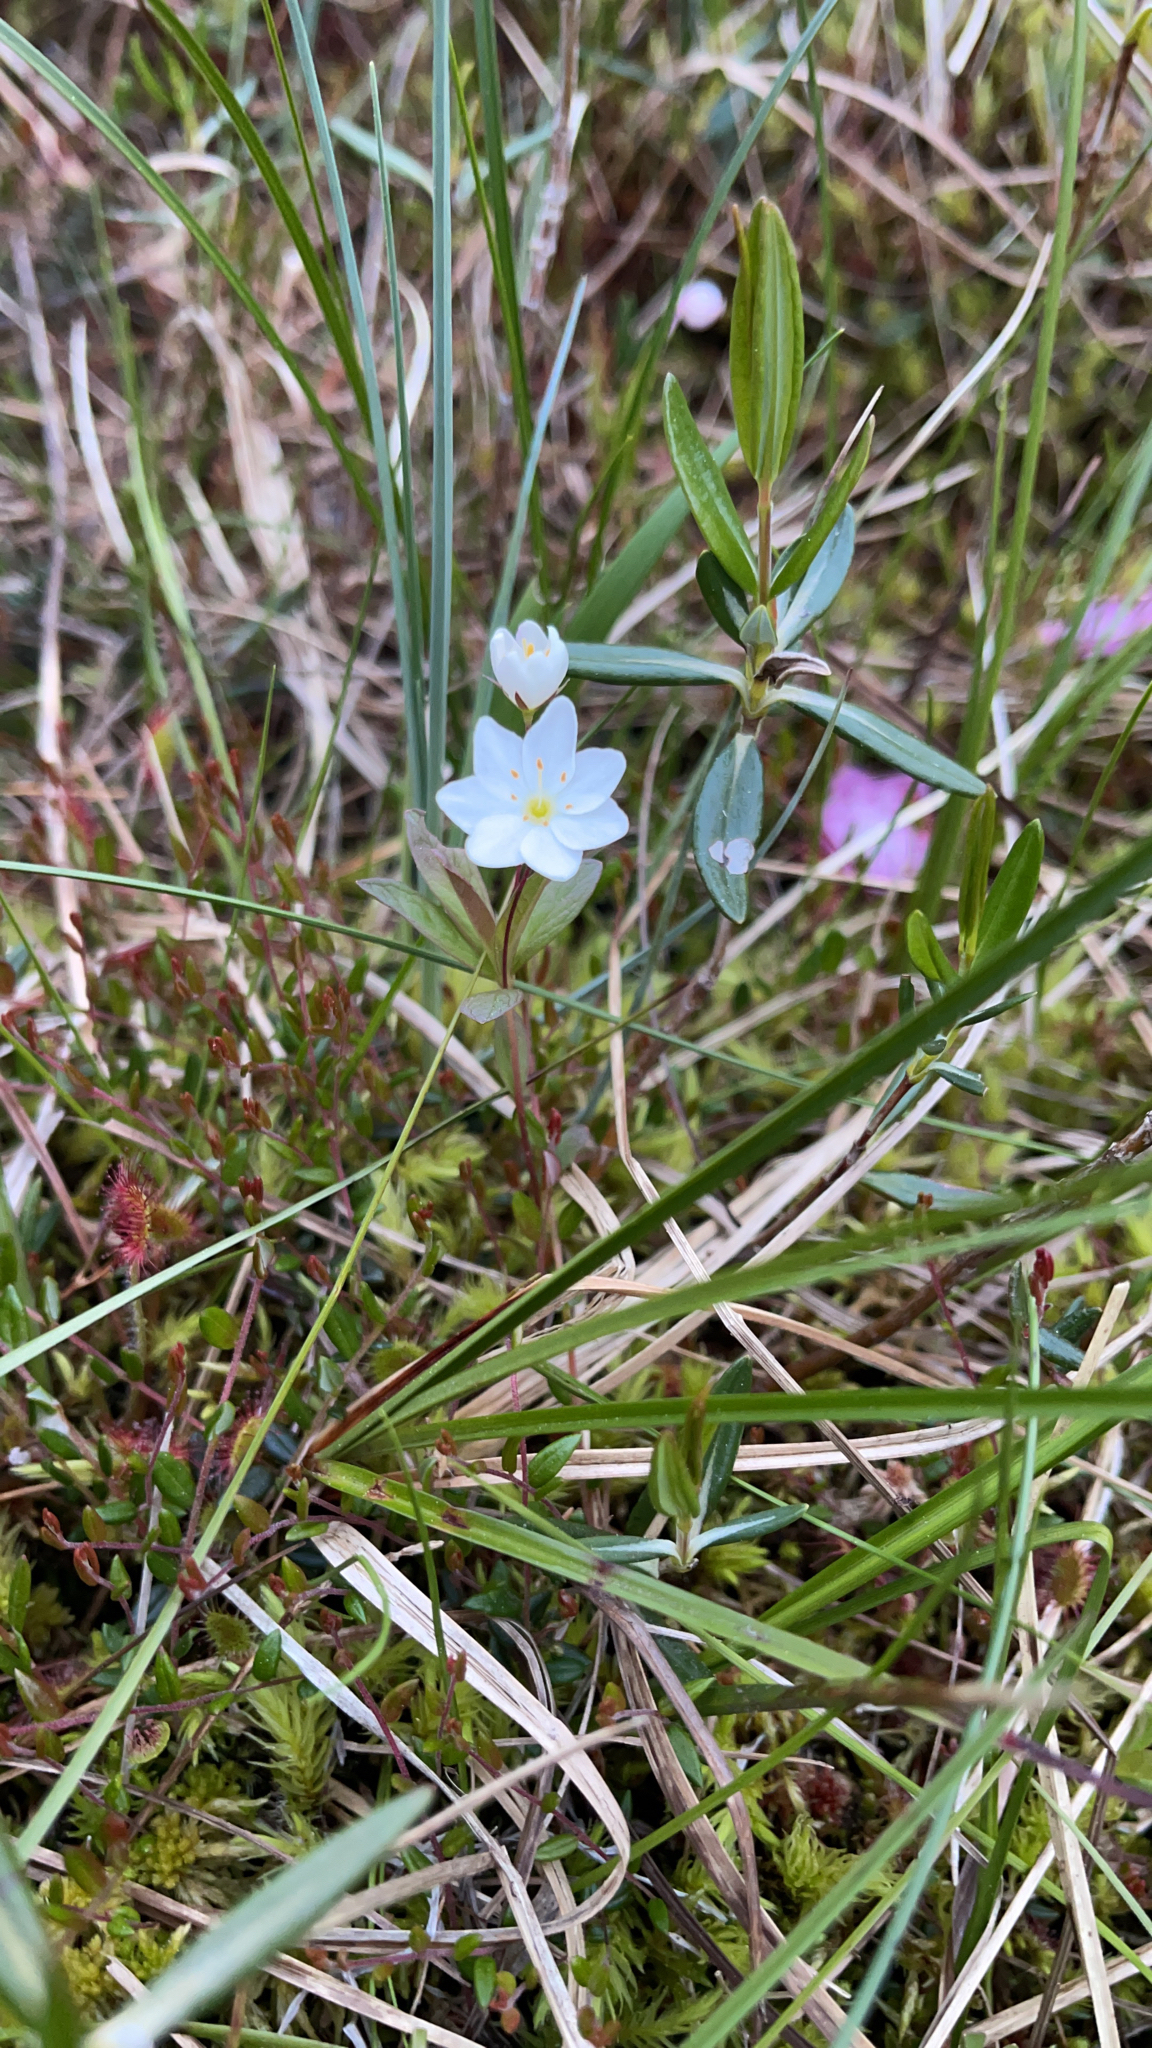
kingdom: Plantae
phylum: Tracheophyta
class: Magnoliopsida
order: Ericales
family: Primulaceae
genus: Lysimachia
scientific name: Lysimachia europaea
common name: Arctic starflower
